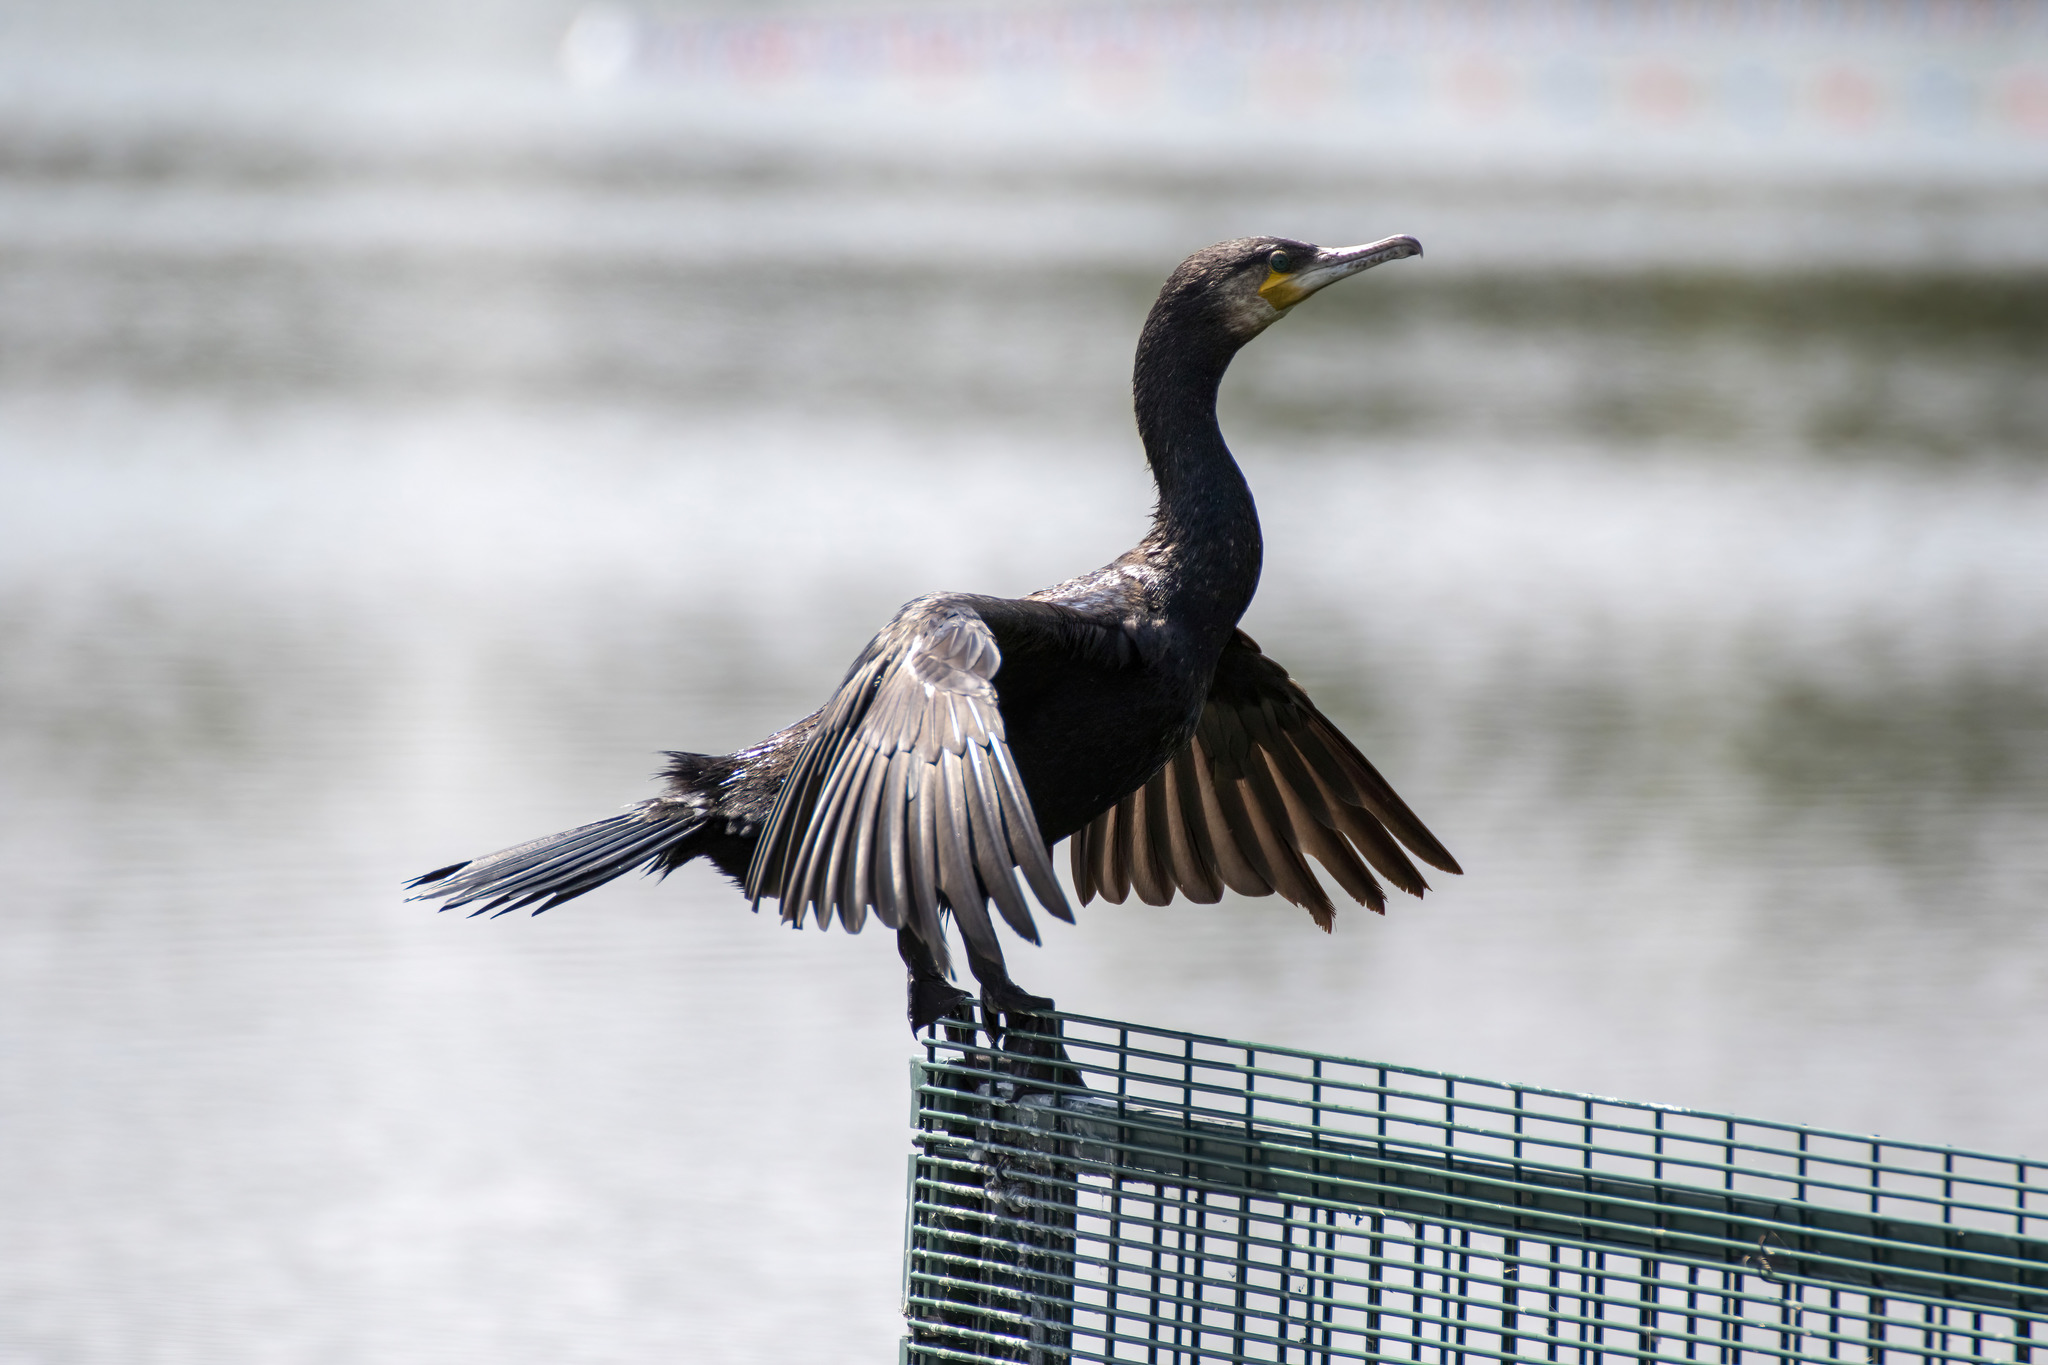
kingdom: Animalia
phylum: Chordata
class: Aves
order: Suliformes
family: Phalacrocoracidae
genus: Phalacrocorax
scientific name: Phalacrocorax carbo
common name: Great cormorant
